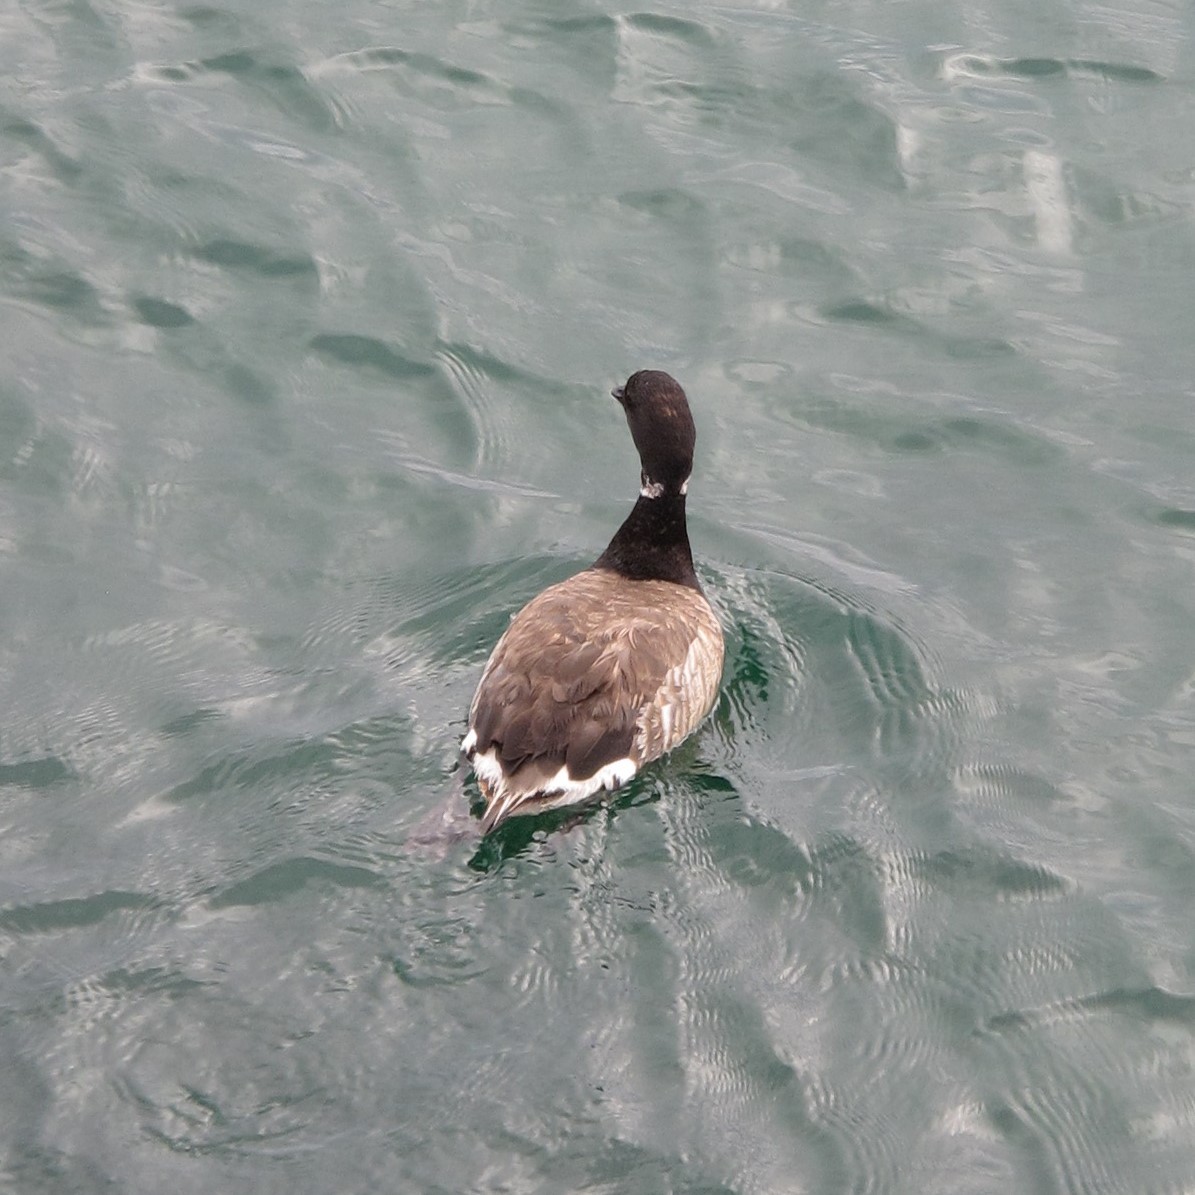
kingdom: Animalia
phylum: Chordata
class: Aves
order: Anseriformes
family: Anatidae
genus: Branta
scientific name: Branta bernicla
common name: Brant goose
